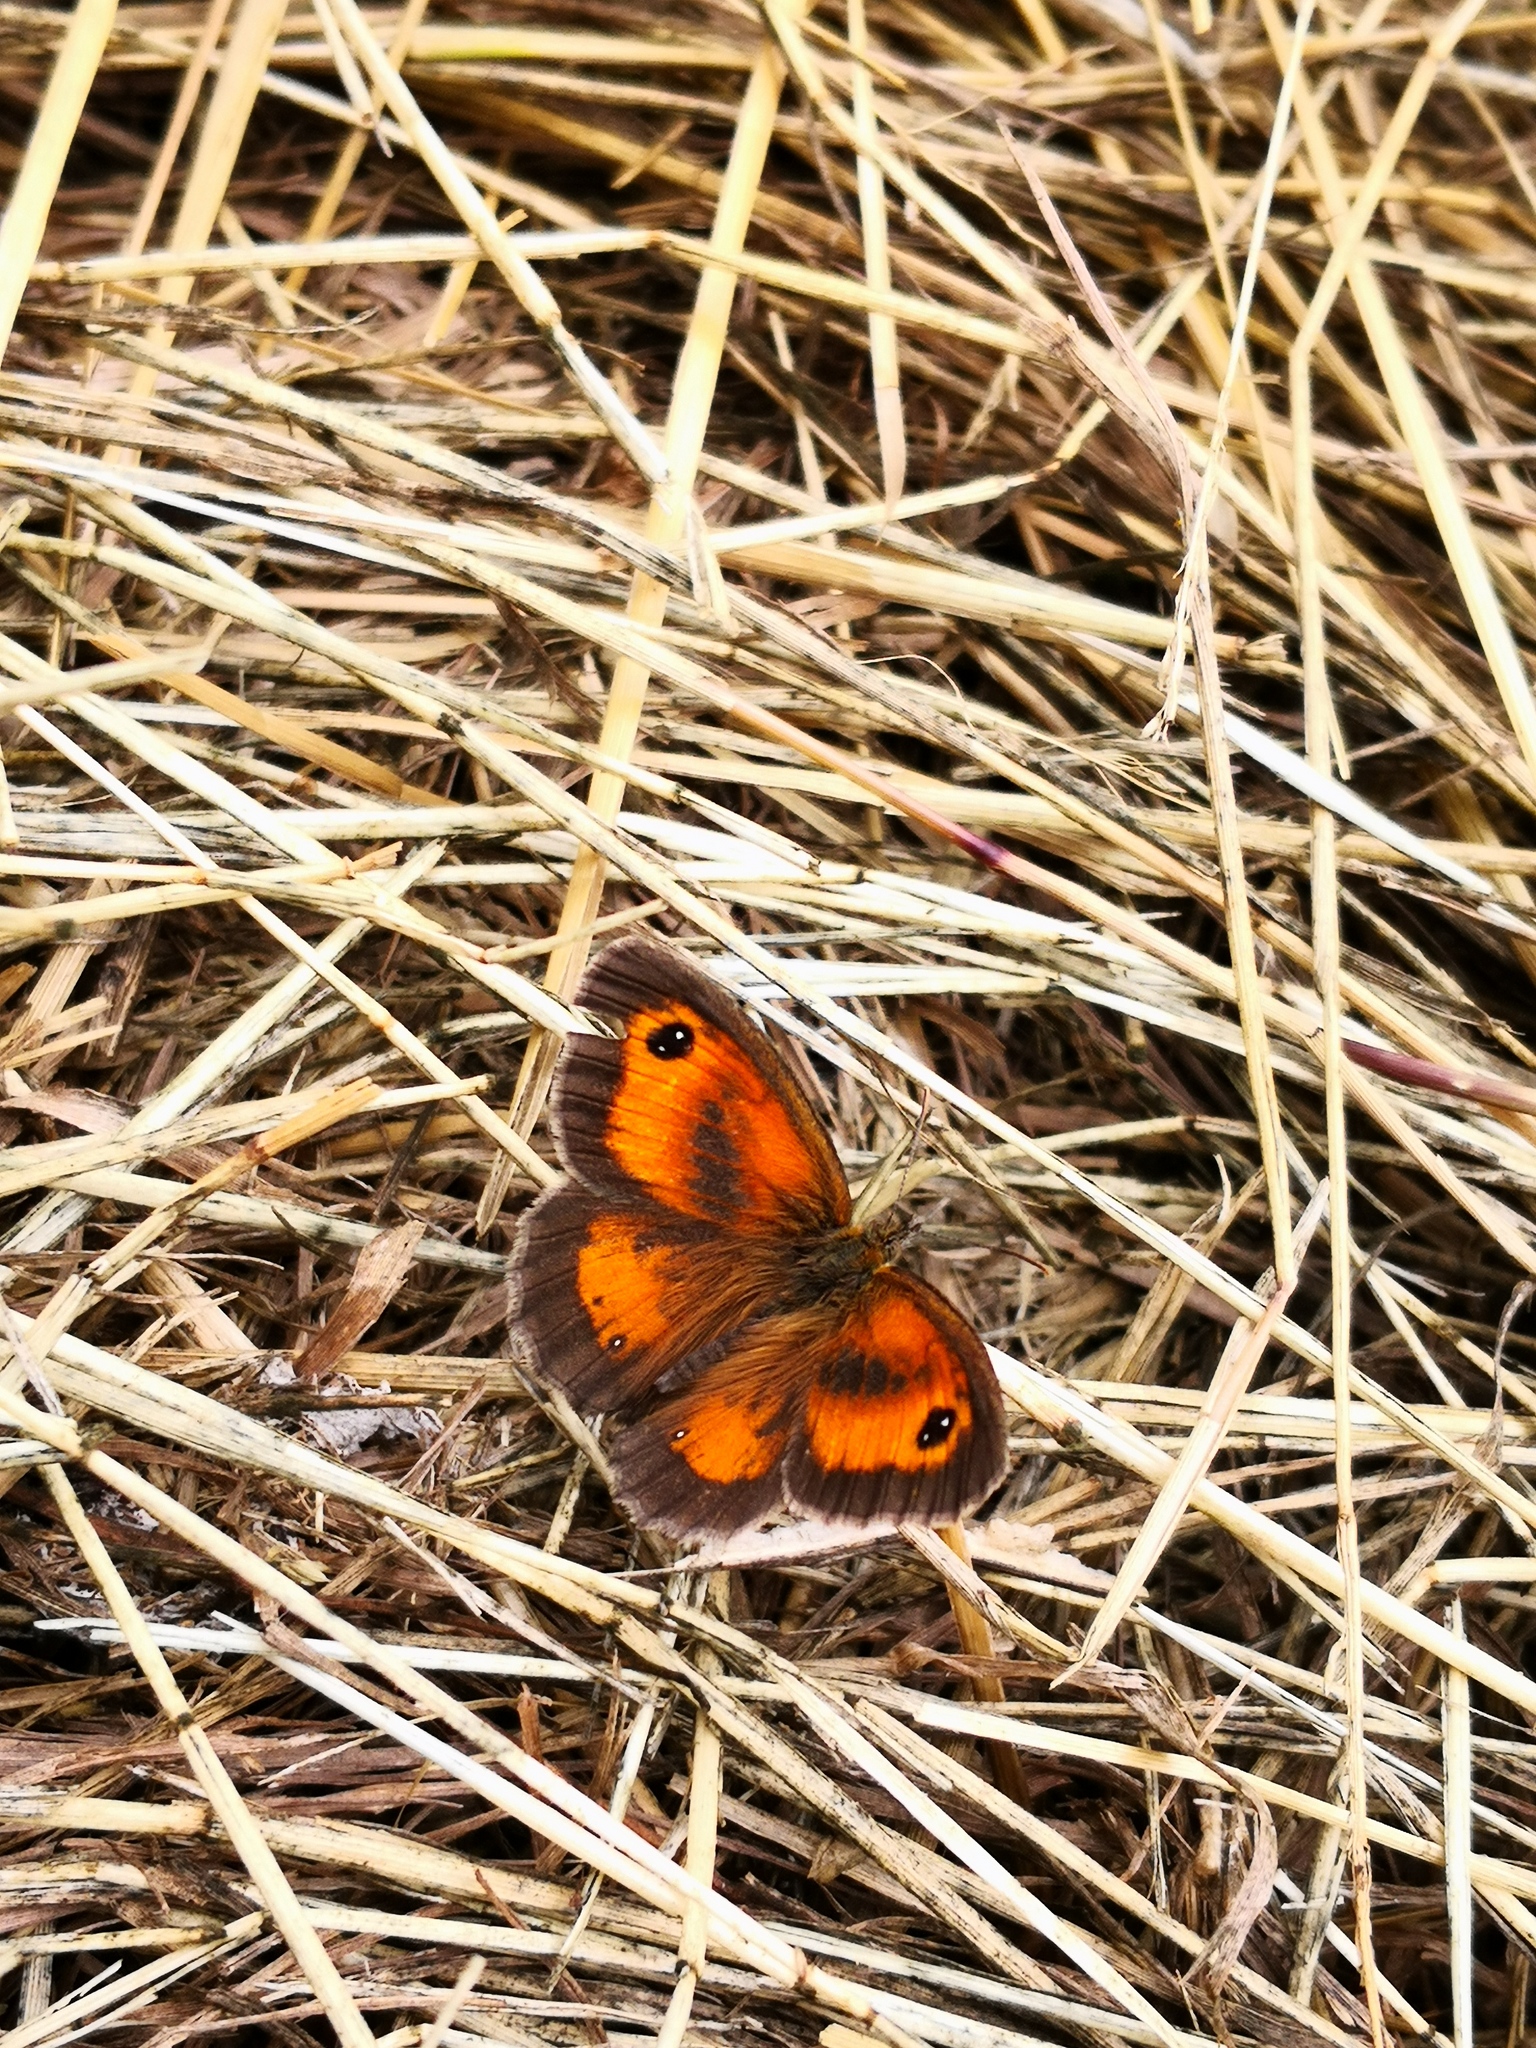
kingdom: Animalia
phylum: Arthropoda
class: Insecta
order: Lepidoptera
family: Nymphalidae
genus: Pyronia
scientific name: Pyronia tithonus
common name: Gatekeeper
